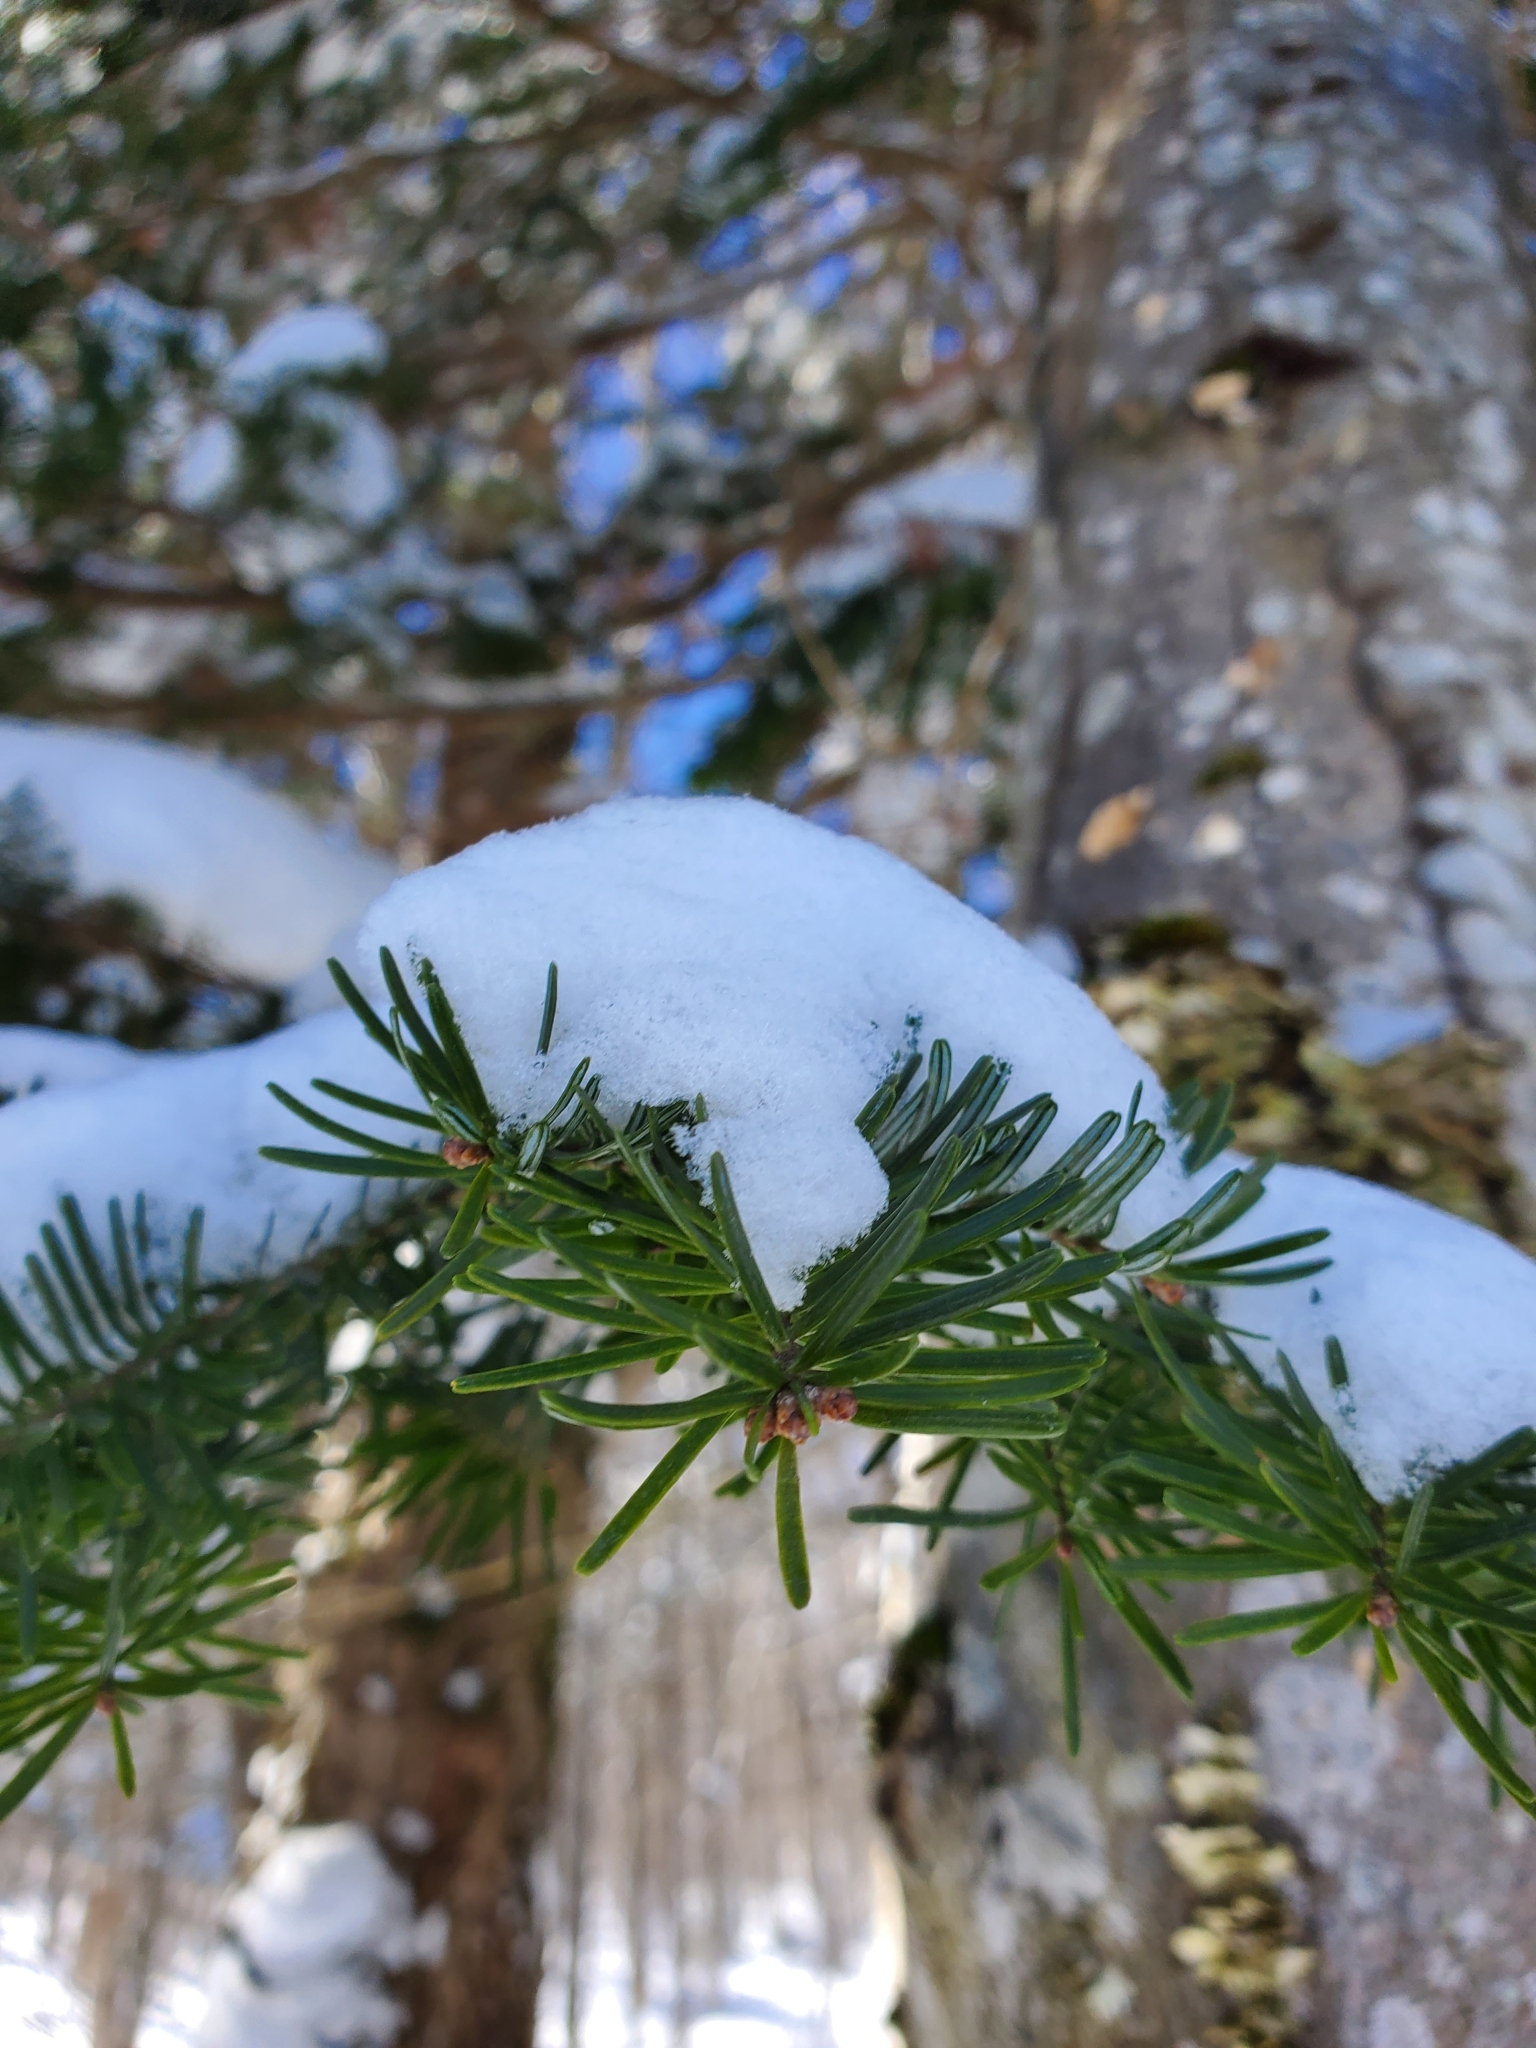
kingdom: Plantae
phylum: Tracheophyta
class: Pinopsida
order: Pinales
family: Pinaceae
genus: Abies
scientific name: Abies balsamea
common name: Balsam fir
